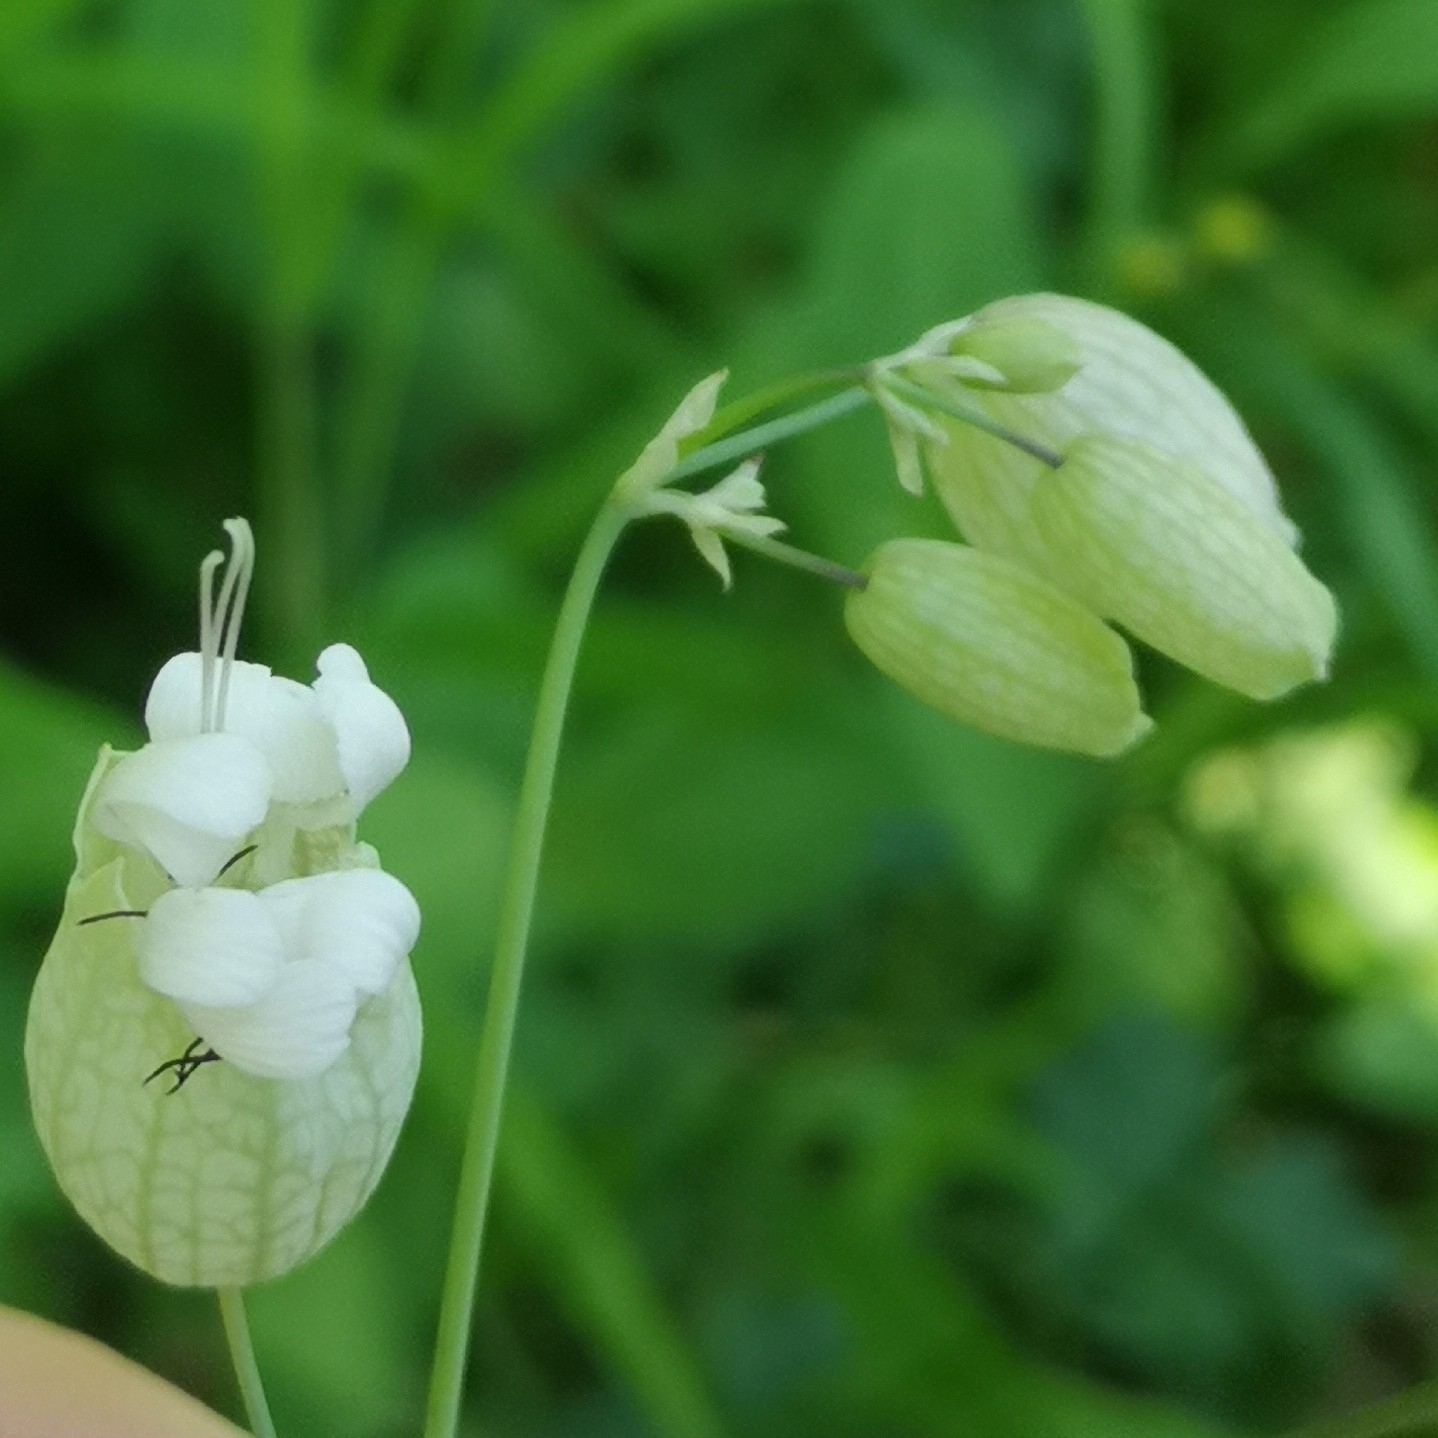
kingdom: Plantae
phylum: Tracheophyta
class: Magnoliopsida
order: Caryophyllales
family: Caryophyllaceae
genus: Silene
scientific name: Silene vulgaris
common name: Bladder campion
